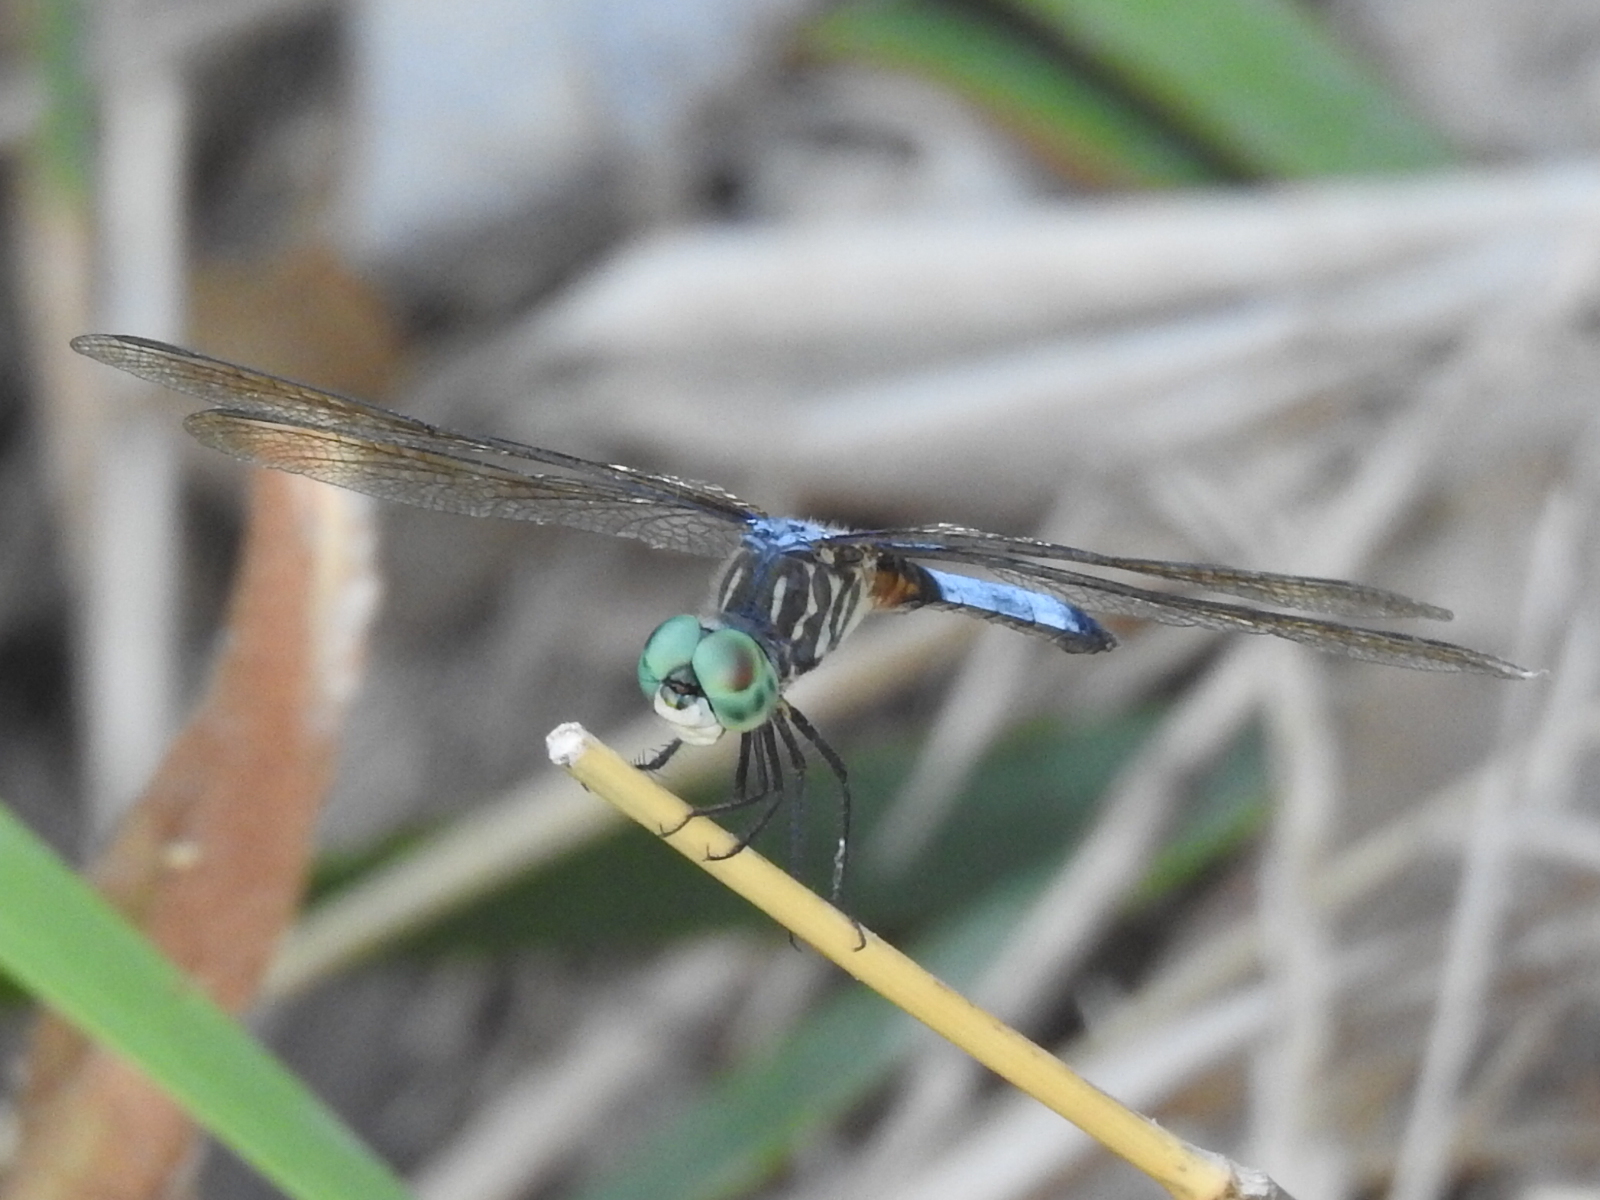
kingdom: Animalia
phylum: Arthropoda
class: Insecta
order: Odonata
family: Libellulidae
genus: Pachydiplax
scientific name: Pachydiplax longipennis
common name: Blue dasher
